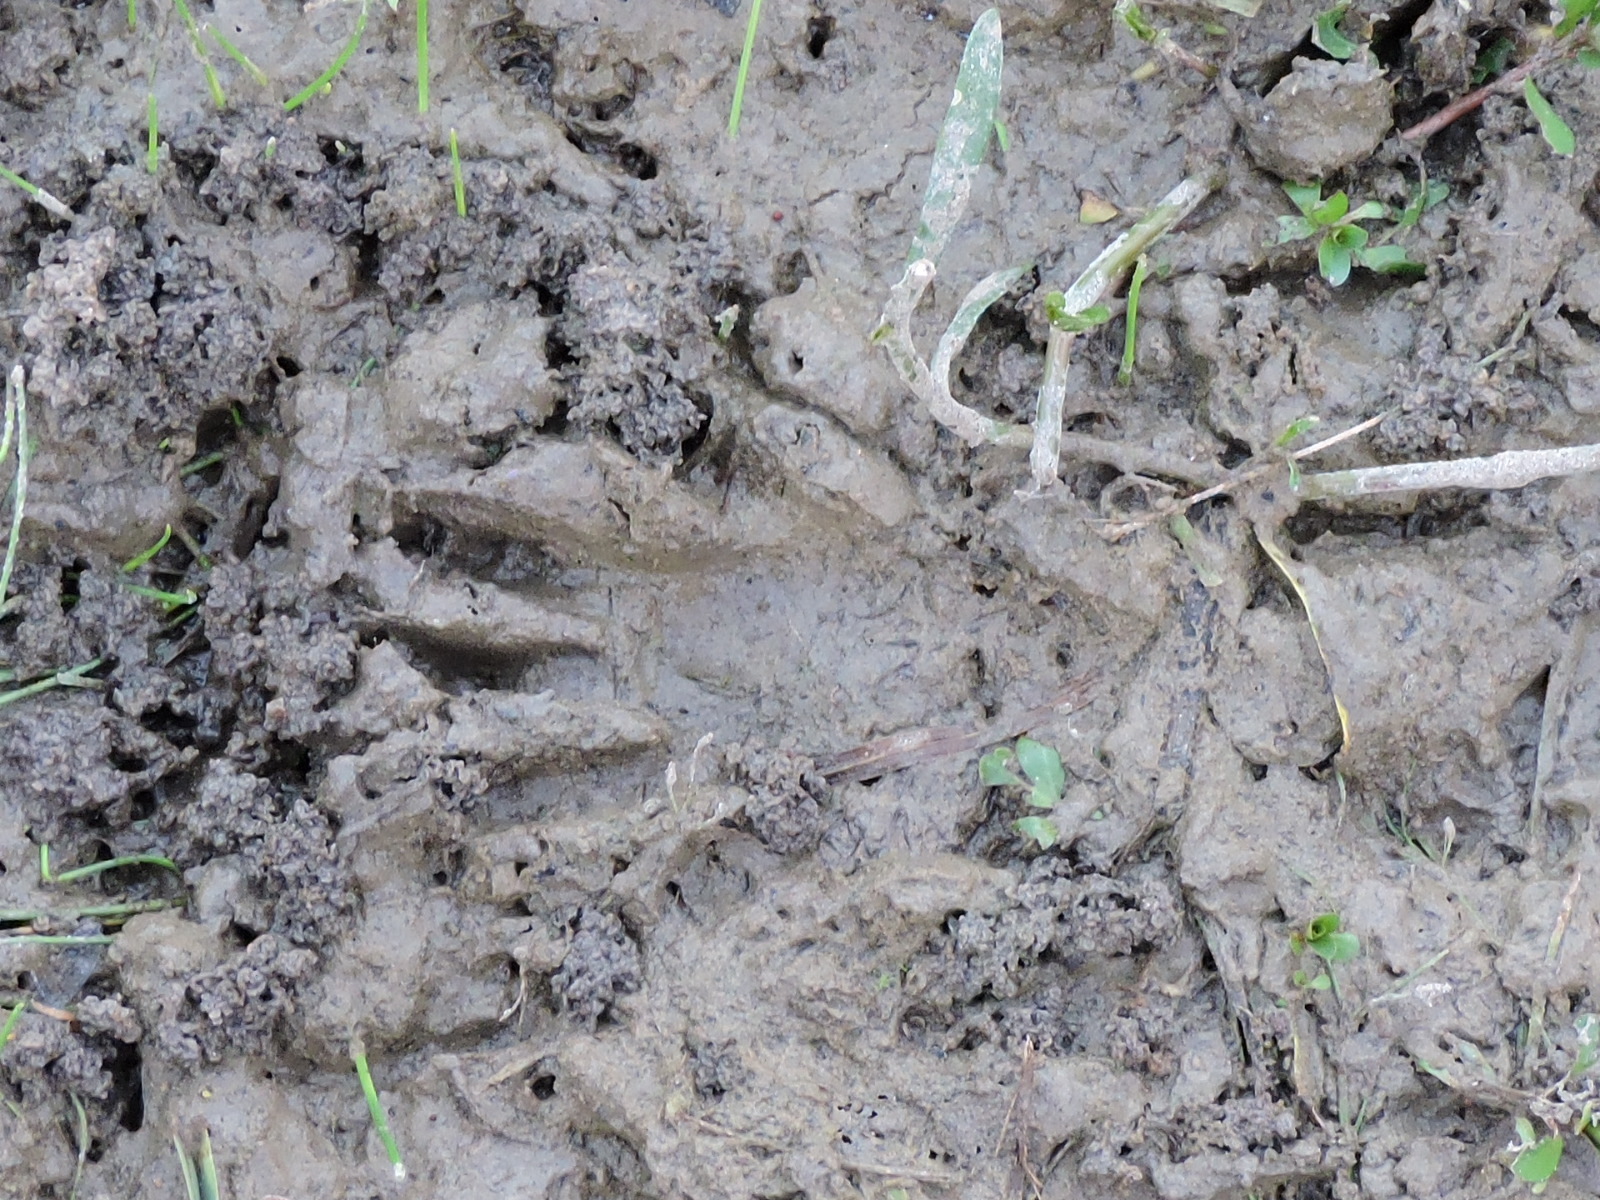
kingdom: Animalia
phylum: Chordata
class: Mammalia
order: Carnivora
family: Procyonidae
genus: Procyon
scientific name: Procyon lotor
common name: Raccoon
